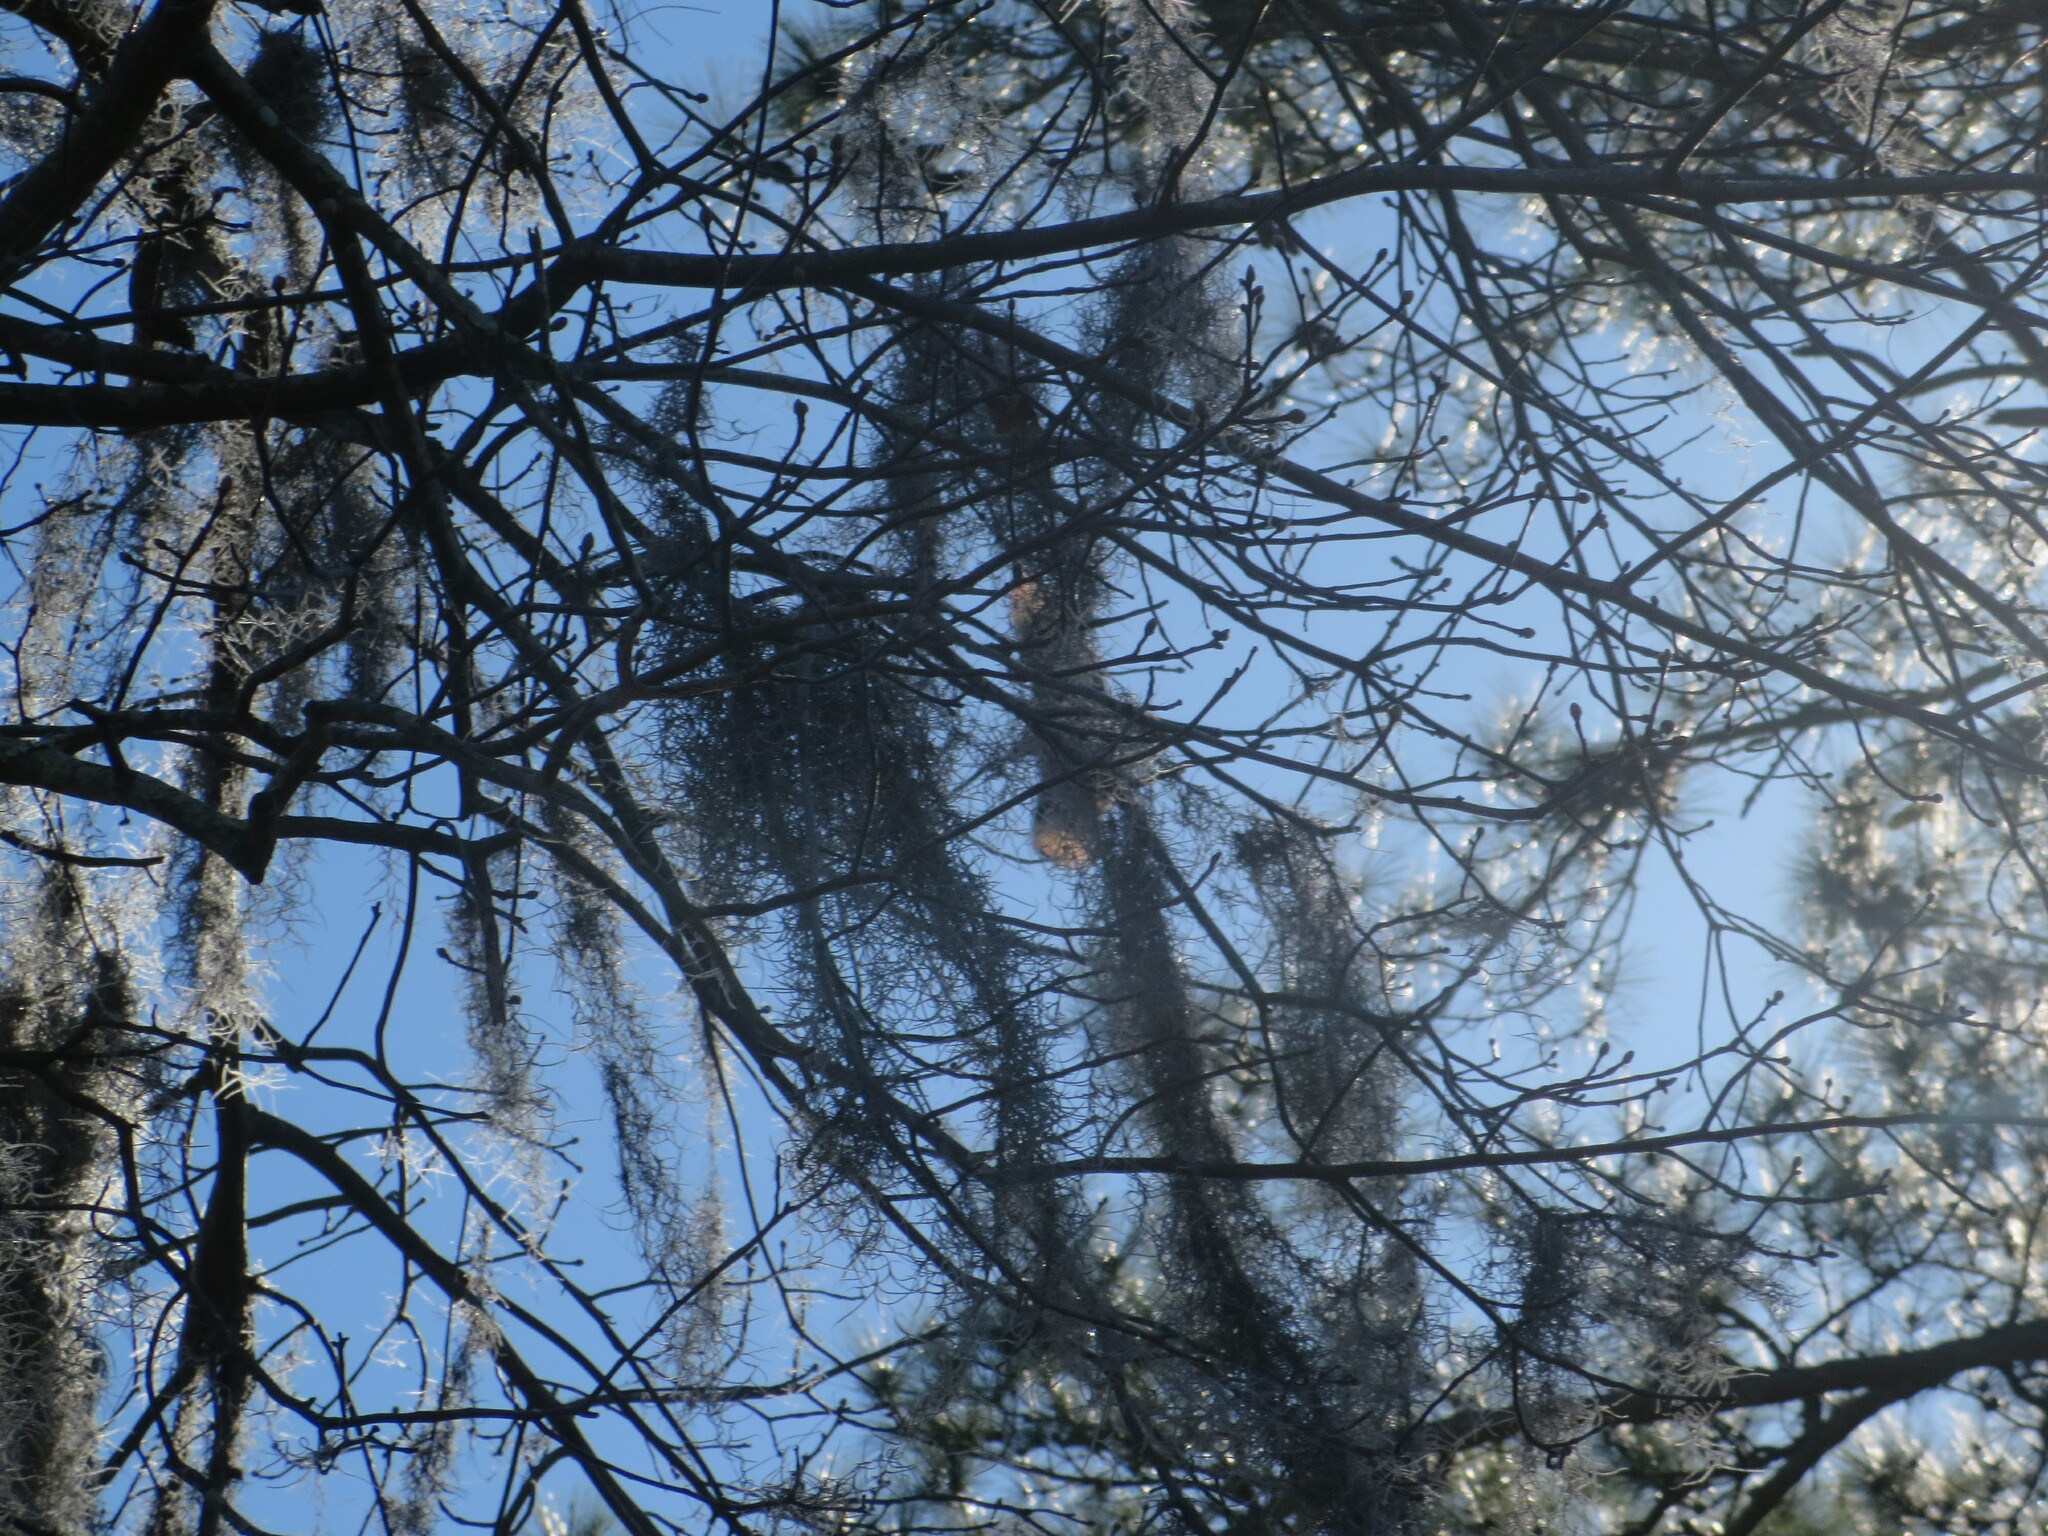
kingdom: Plantae
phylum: Tracheophyta
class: Liliopsida
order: Poales
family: Bromeliaceae
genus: Tillandsia
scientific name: Tillandsia usneoides
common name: Spanish moss
